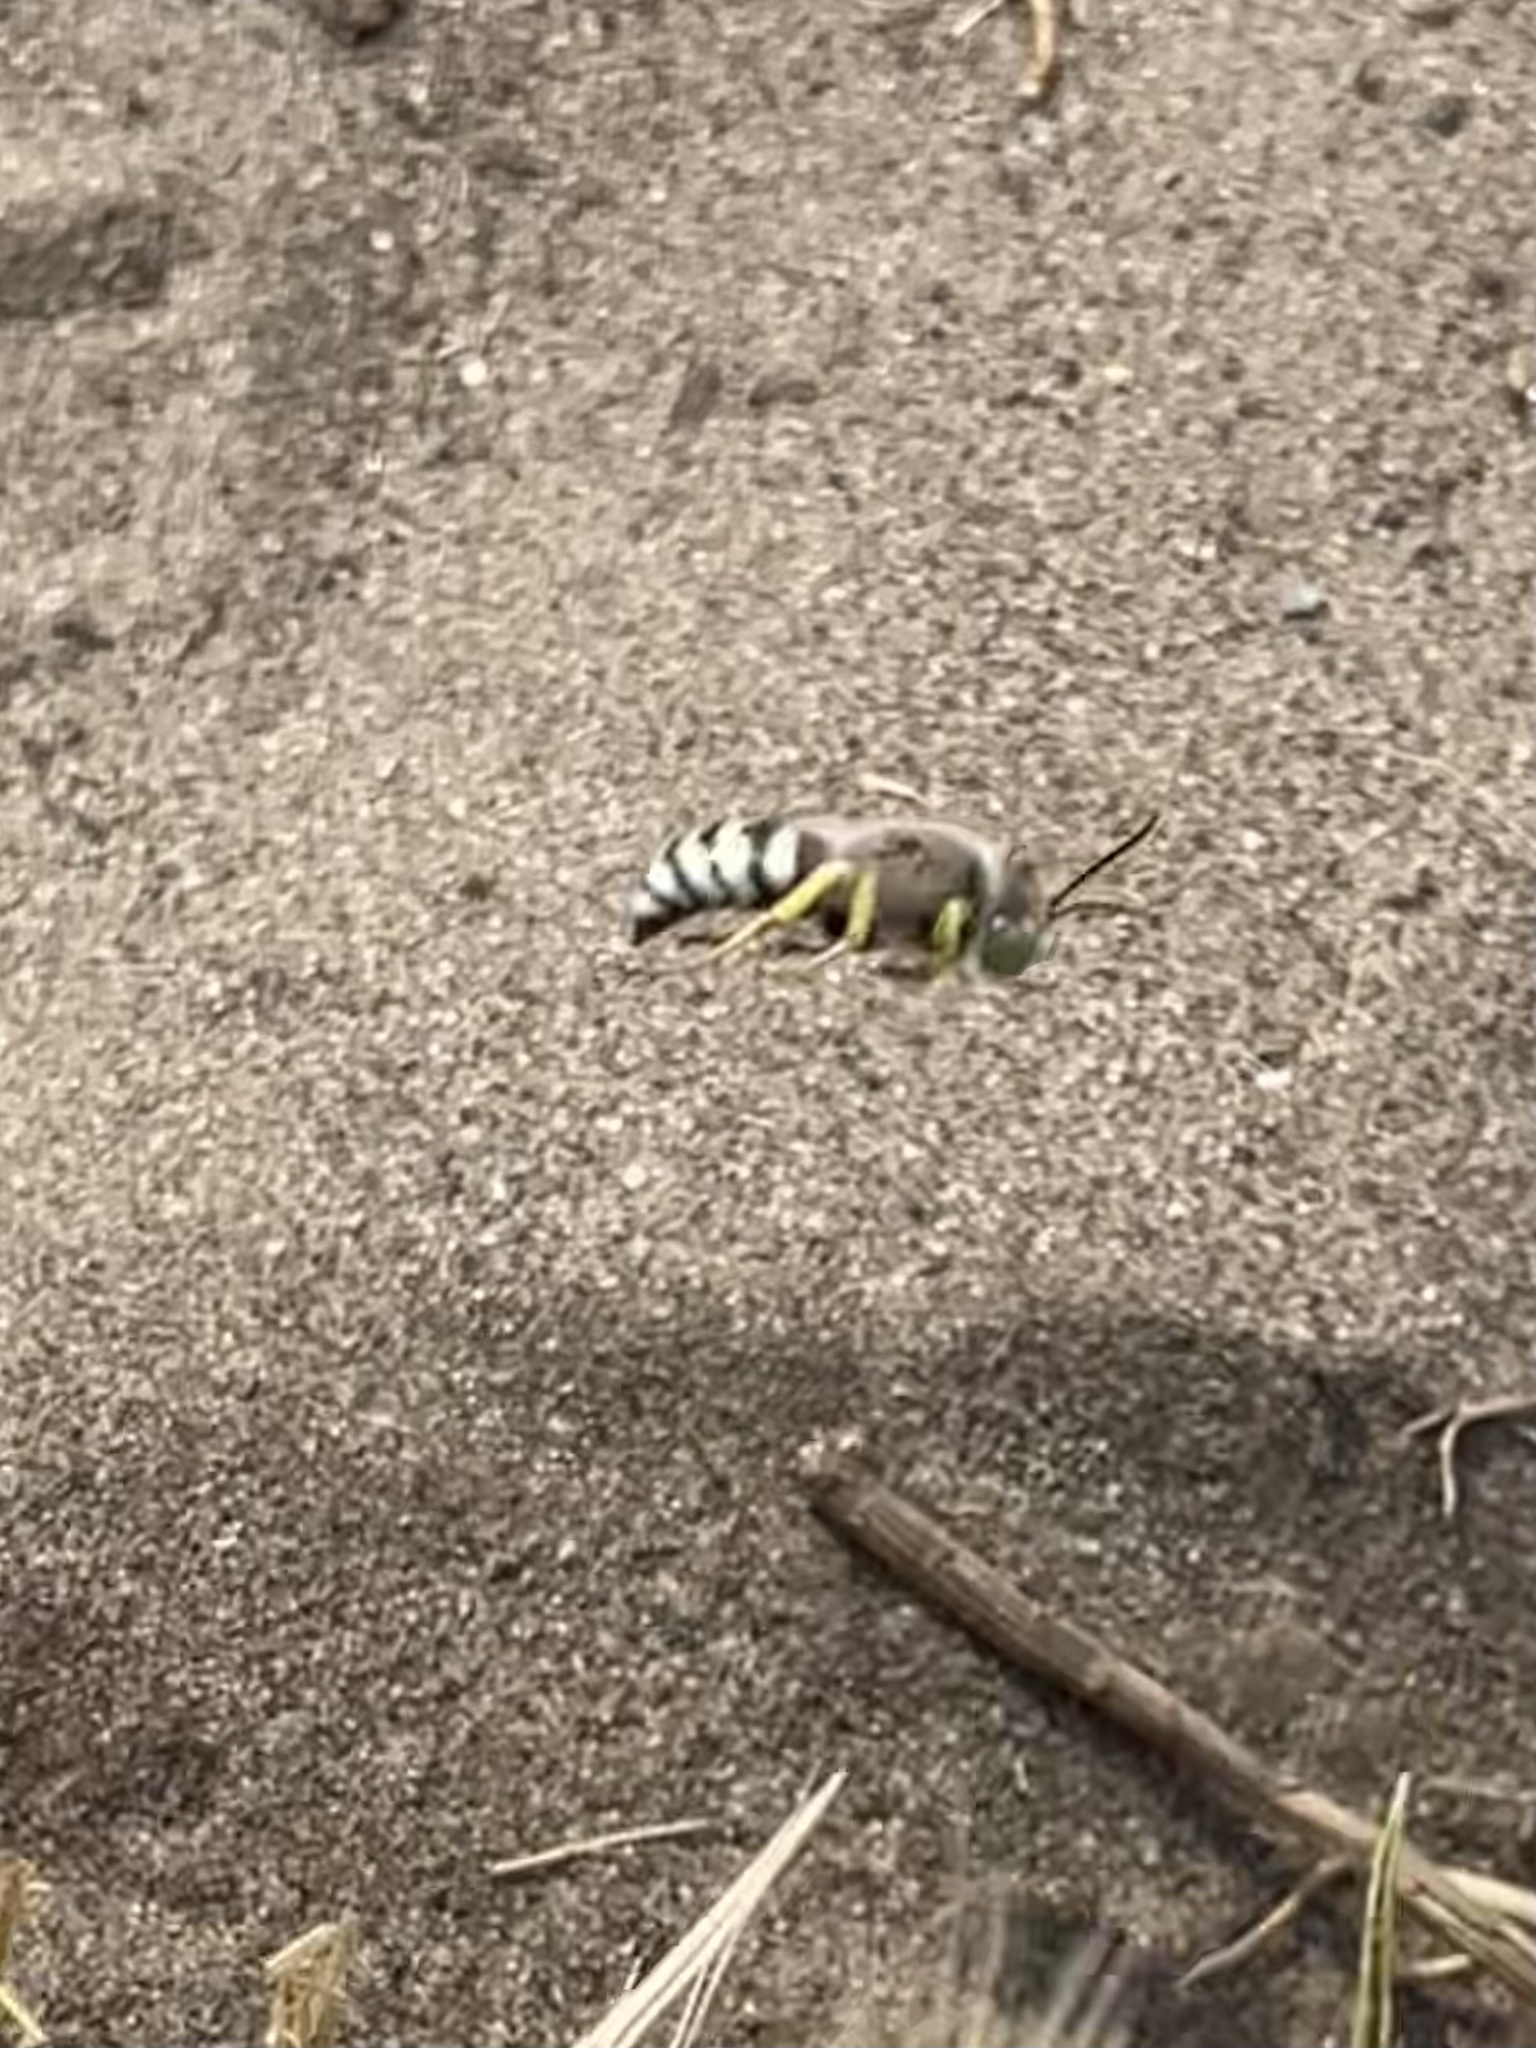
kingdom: Animalia
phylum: Arthropoda
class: Insecta
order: Hymenoptera
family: Crabronidae
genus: Bembix
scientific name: Bembix americana
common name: American sand wasp
